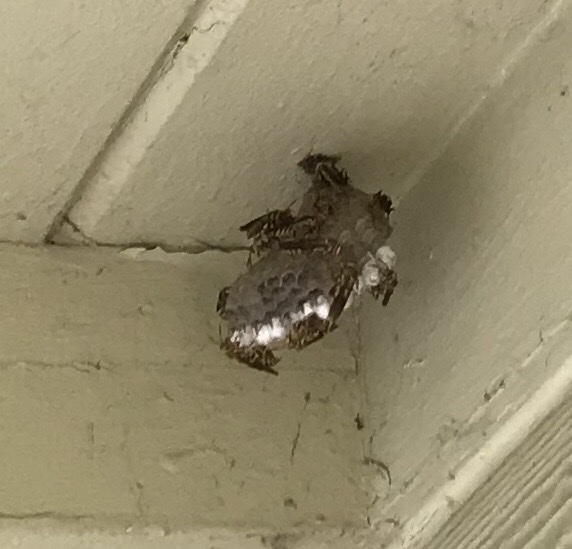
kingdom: Animalia
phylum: Arthropoda
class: Insecta
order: Hymenoptera
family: Eumenidae
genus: Polistes
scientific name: Polistes
